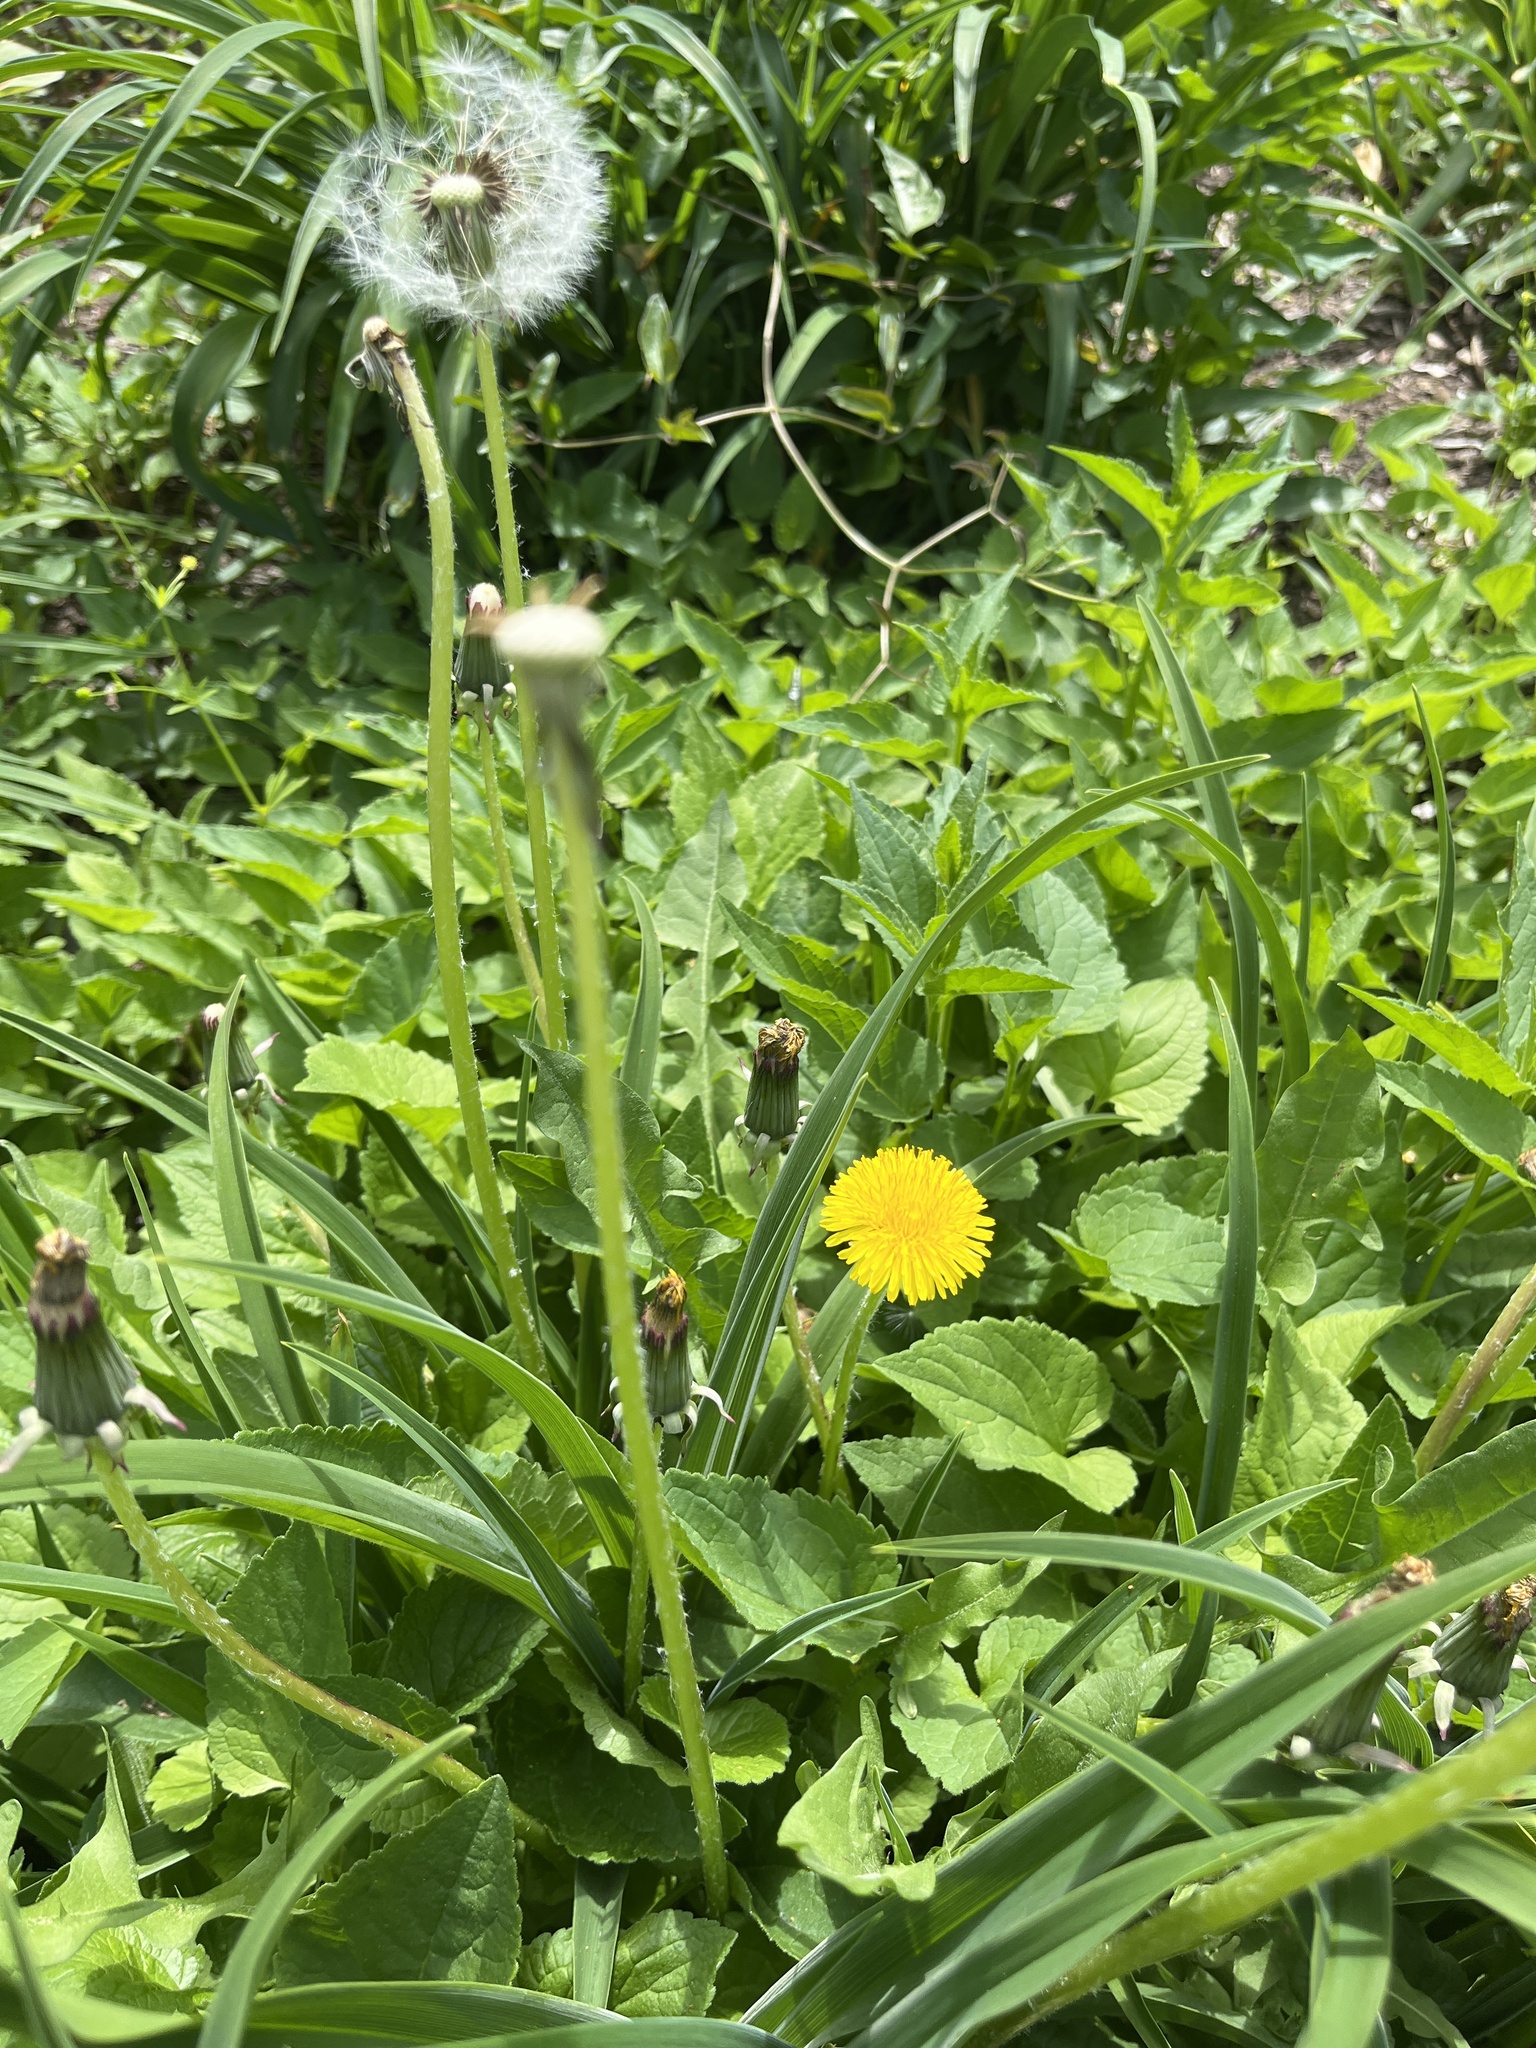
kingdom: Plantae
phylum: Tracheophyta
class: Magnoliopsida
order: Asterales
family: Asteraceae
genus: Taraxacum
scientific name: Taraxacum officinale
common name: Common dandelion
